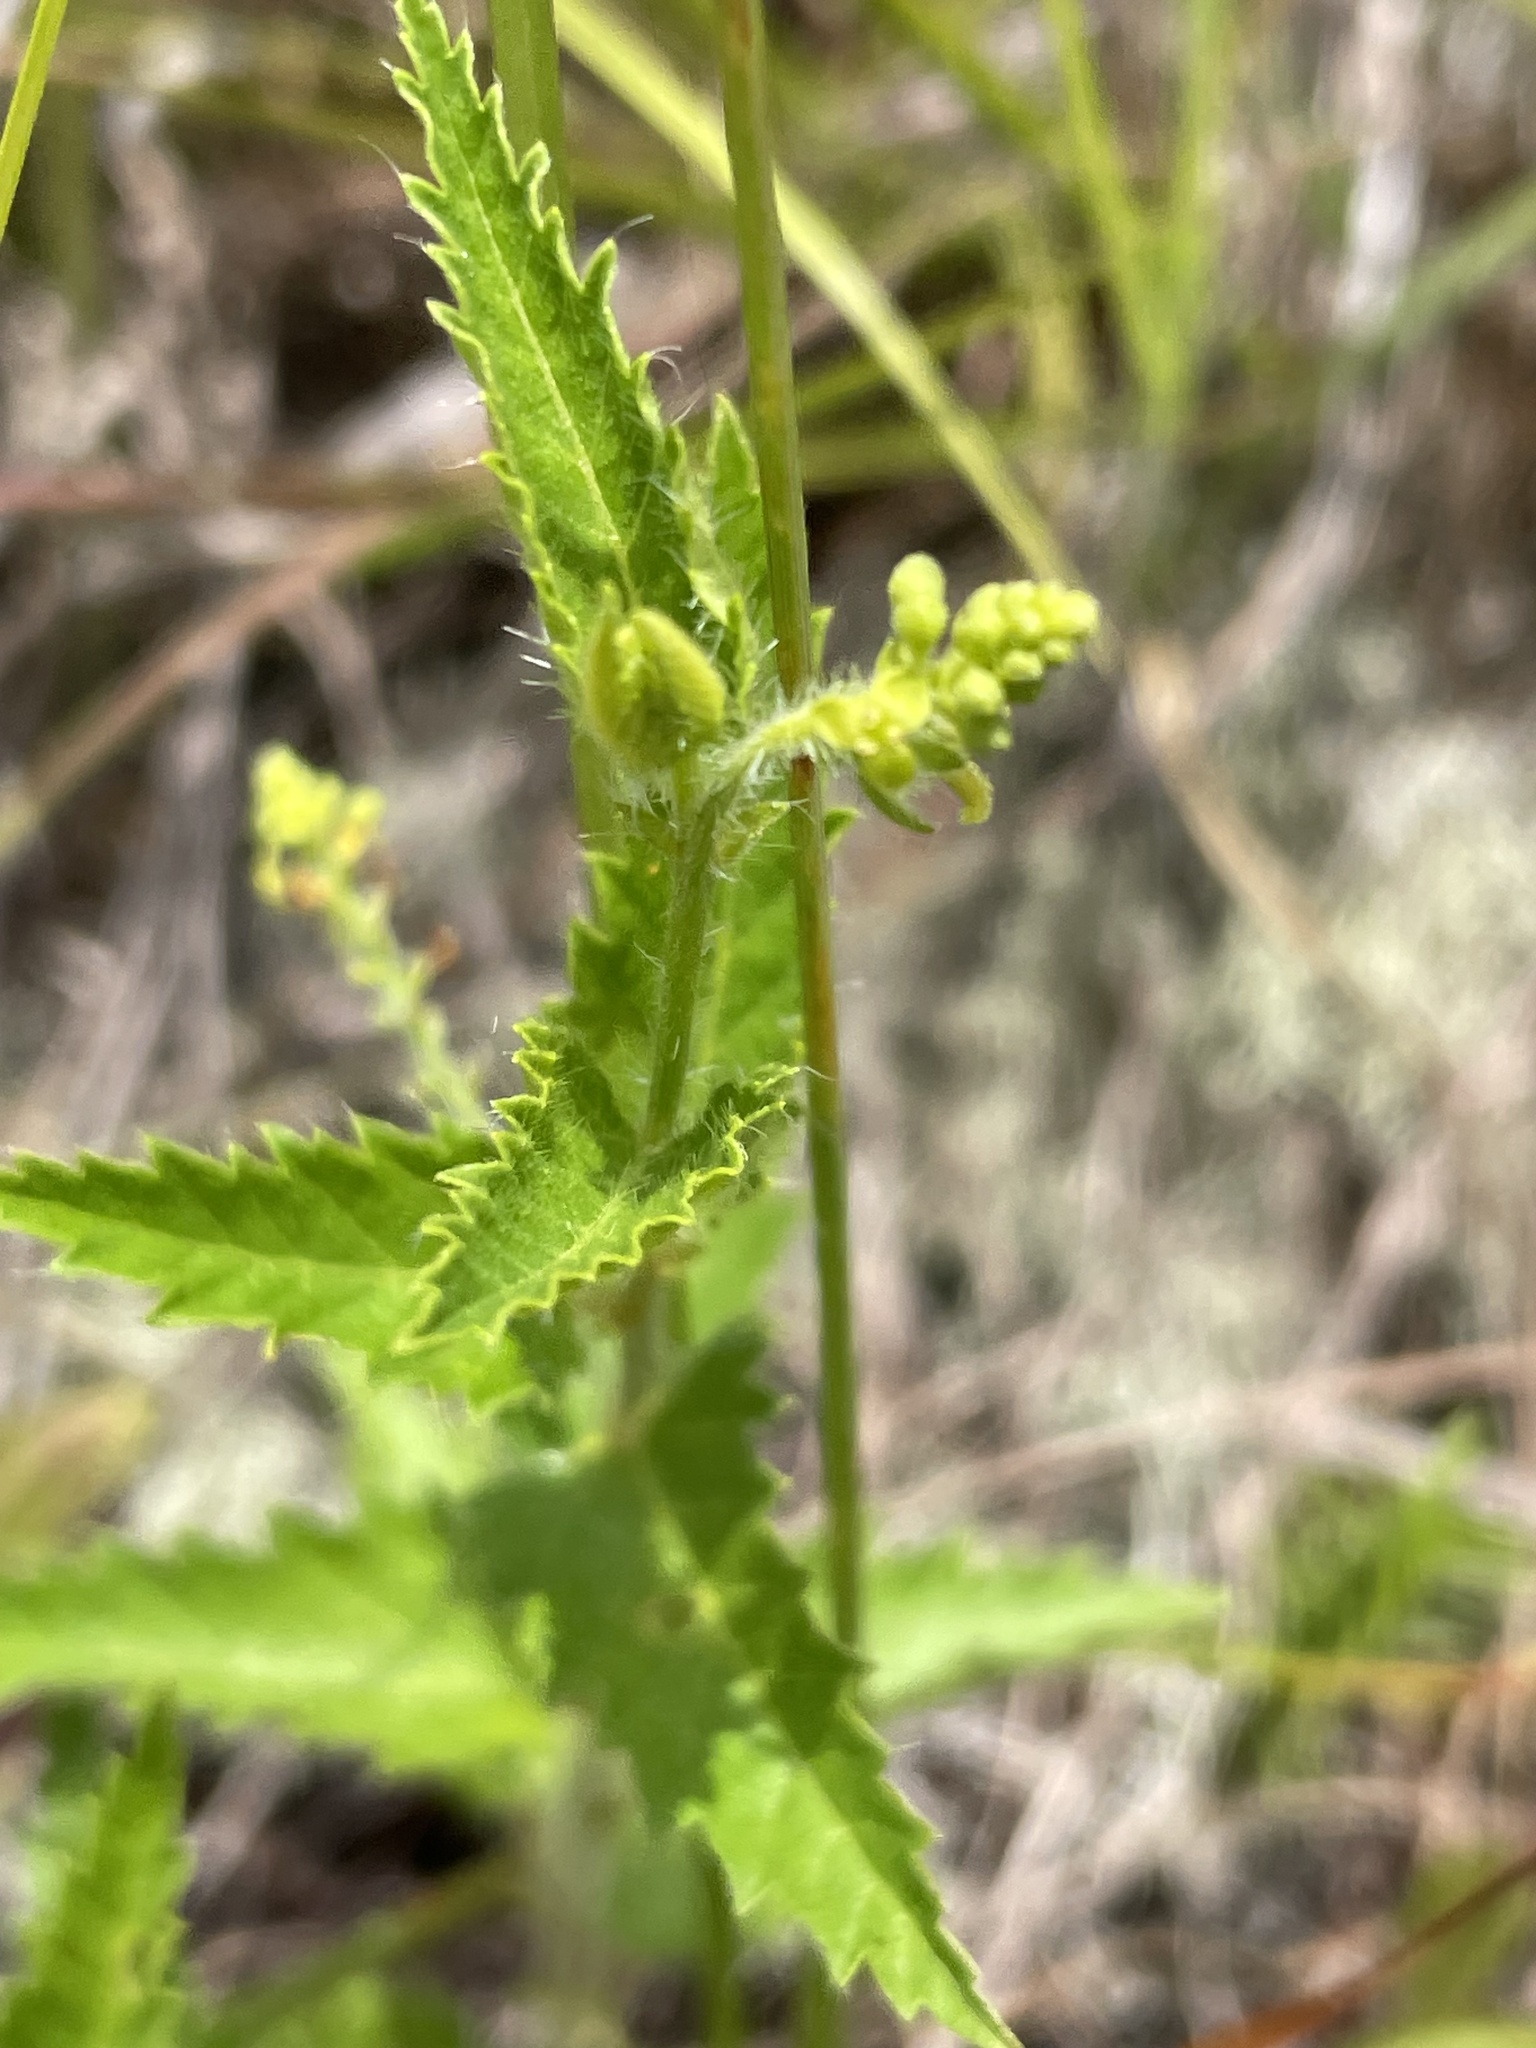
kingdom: Plantae
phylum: Tracheophyta
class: Magnoliopsida
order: Malpighiales
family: Euphorbiaceae
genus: Tragia
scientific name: Tragia urticifolia
